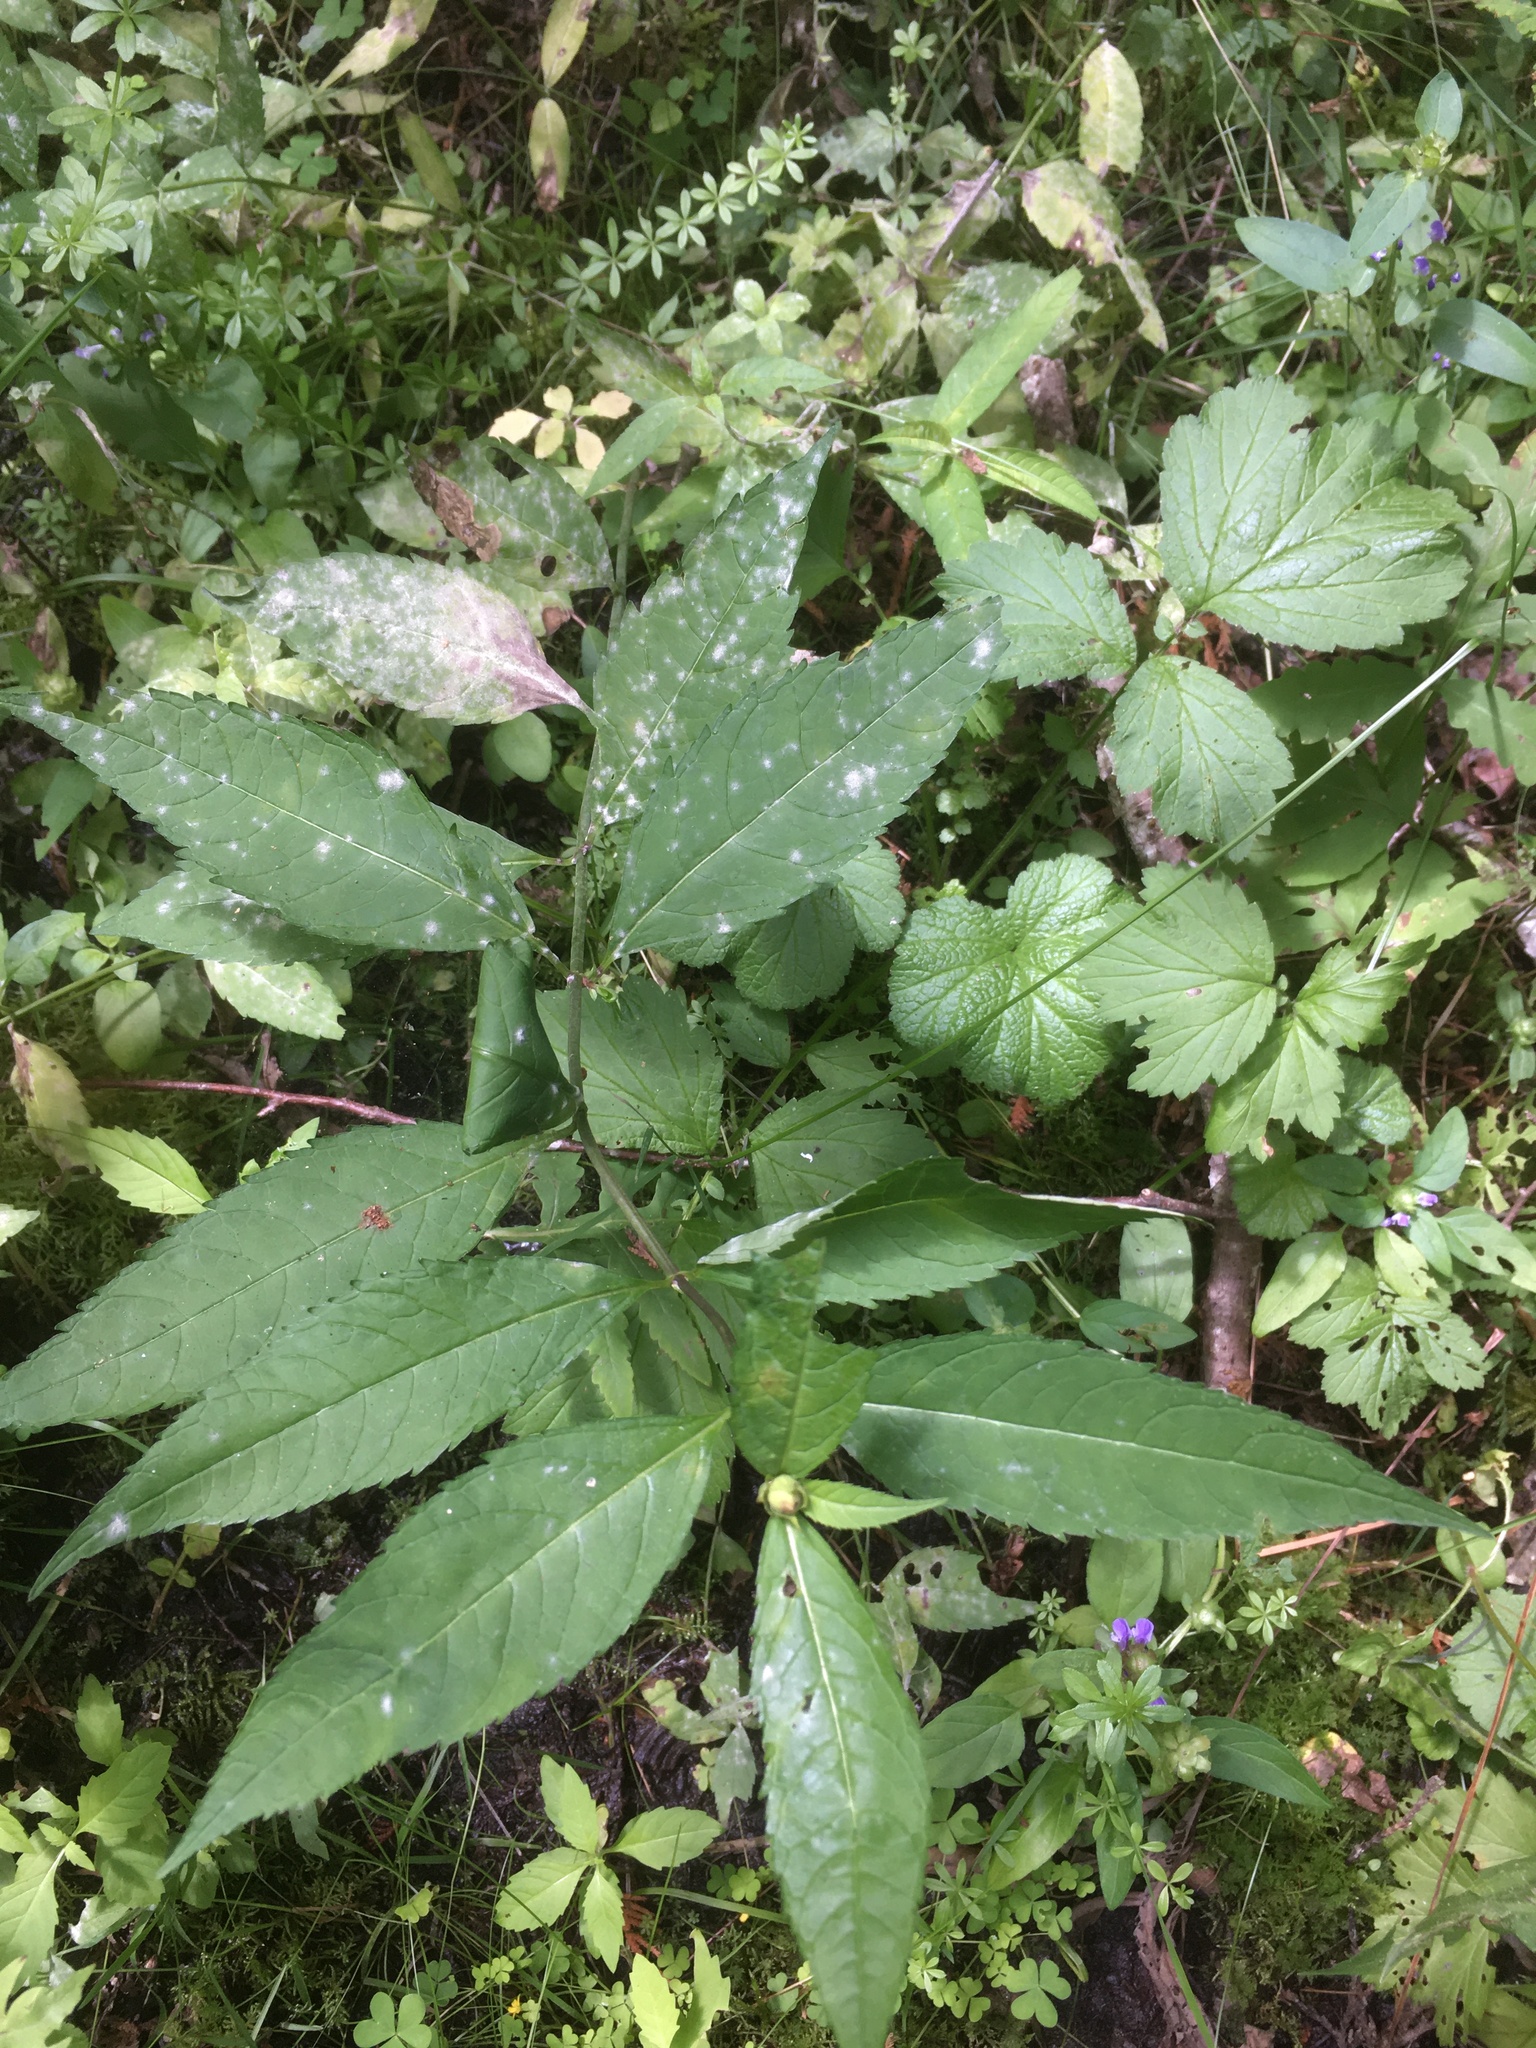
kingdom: Plantae
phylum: Tracheophyta
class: Magnoliopsida
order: Lamiales
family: Plantaginaceae
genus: Chelone
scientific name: Chelone glabra
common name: Snakehead
